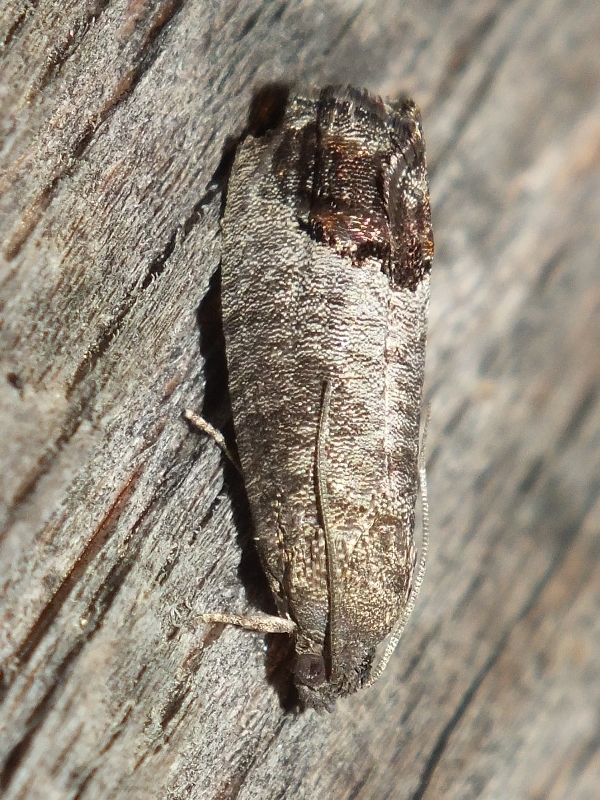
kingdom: Animalia
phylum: Arthropoda
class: Insecta
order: Lepidoptera
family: Tortricidae
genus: Cydia
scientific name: Cydia pomonella
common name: Codling moth
